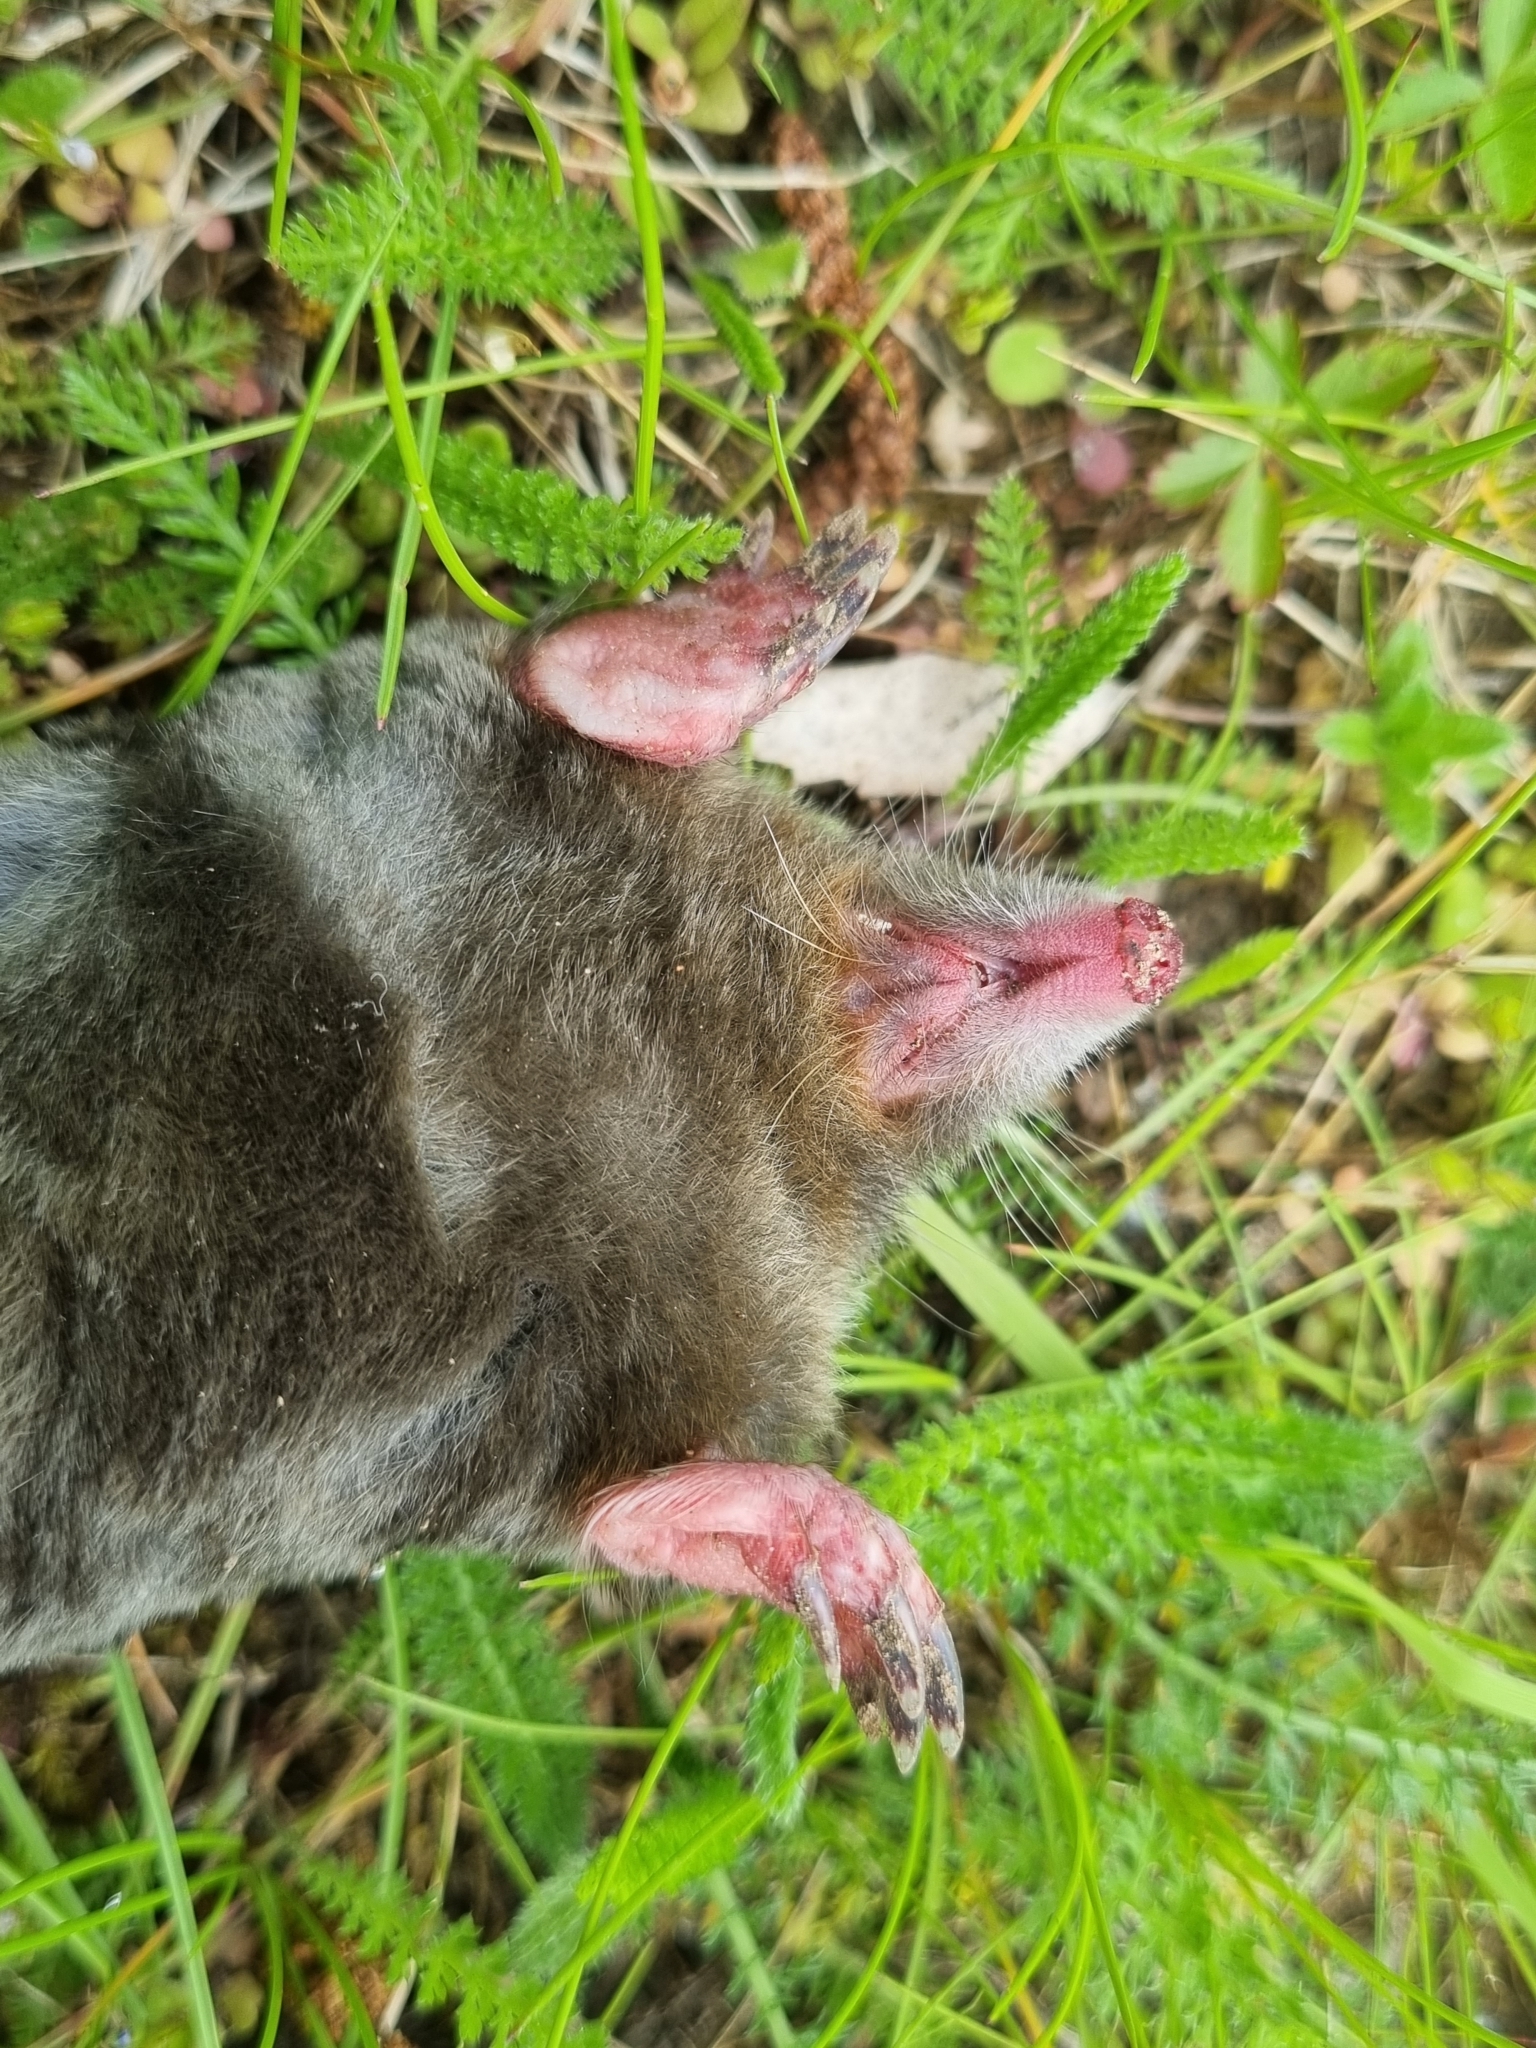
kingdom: Animalia
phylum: Chordata
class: Mammalia
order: Soricomorpha
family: Talpidae
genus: Talpa
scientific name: Talpa europaea
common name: European mole
